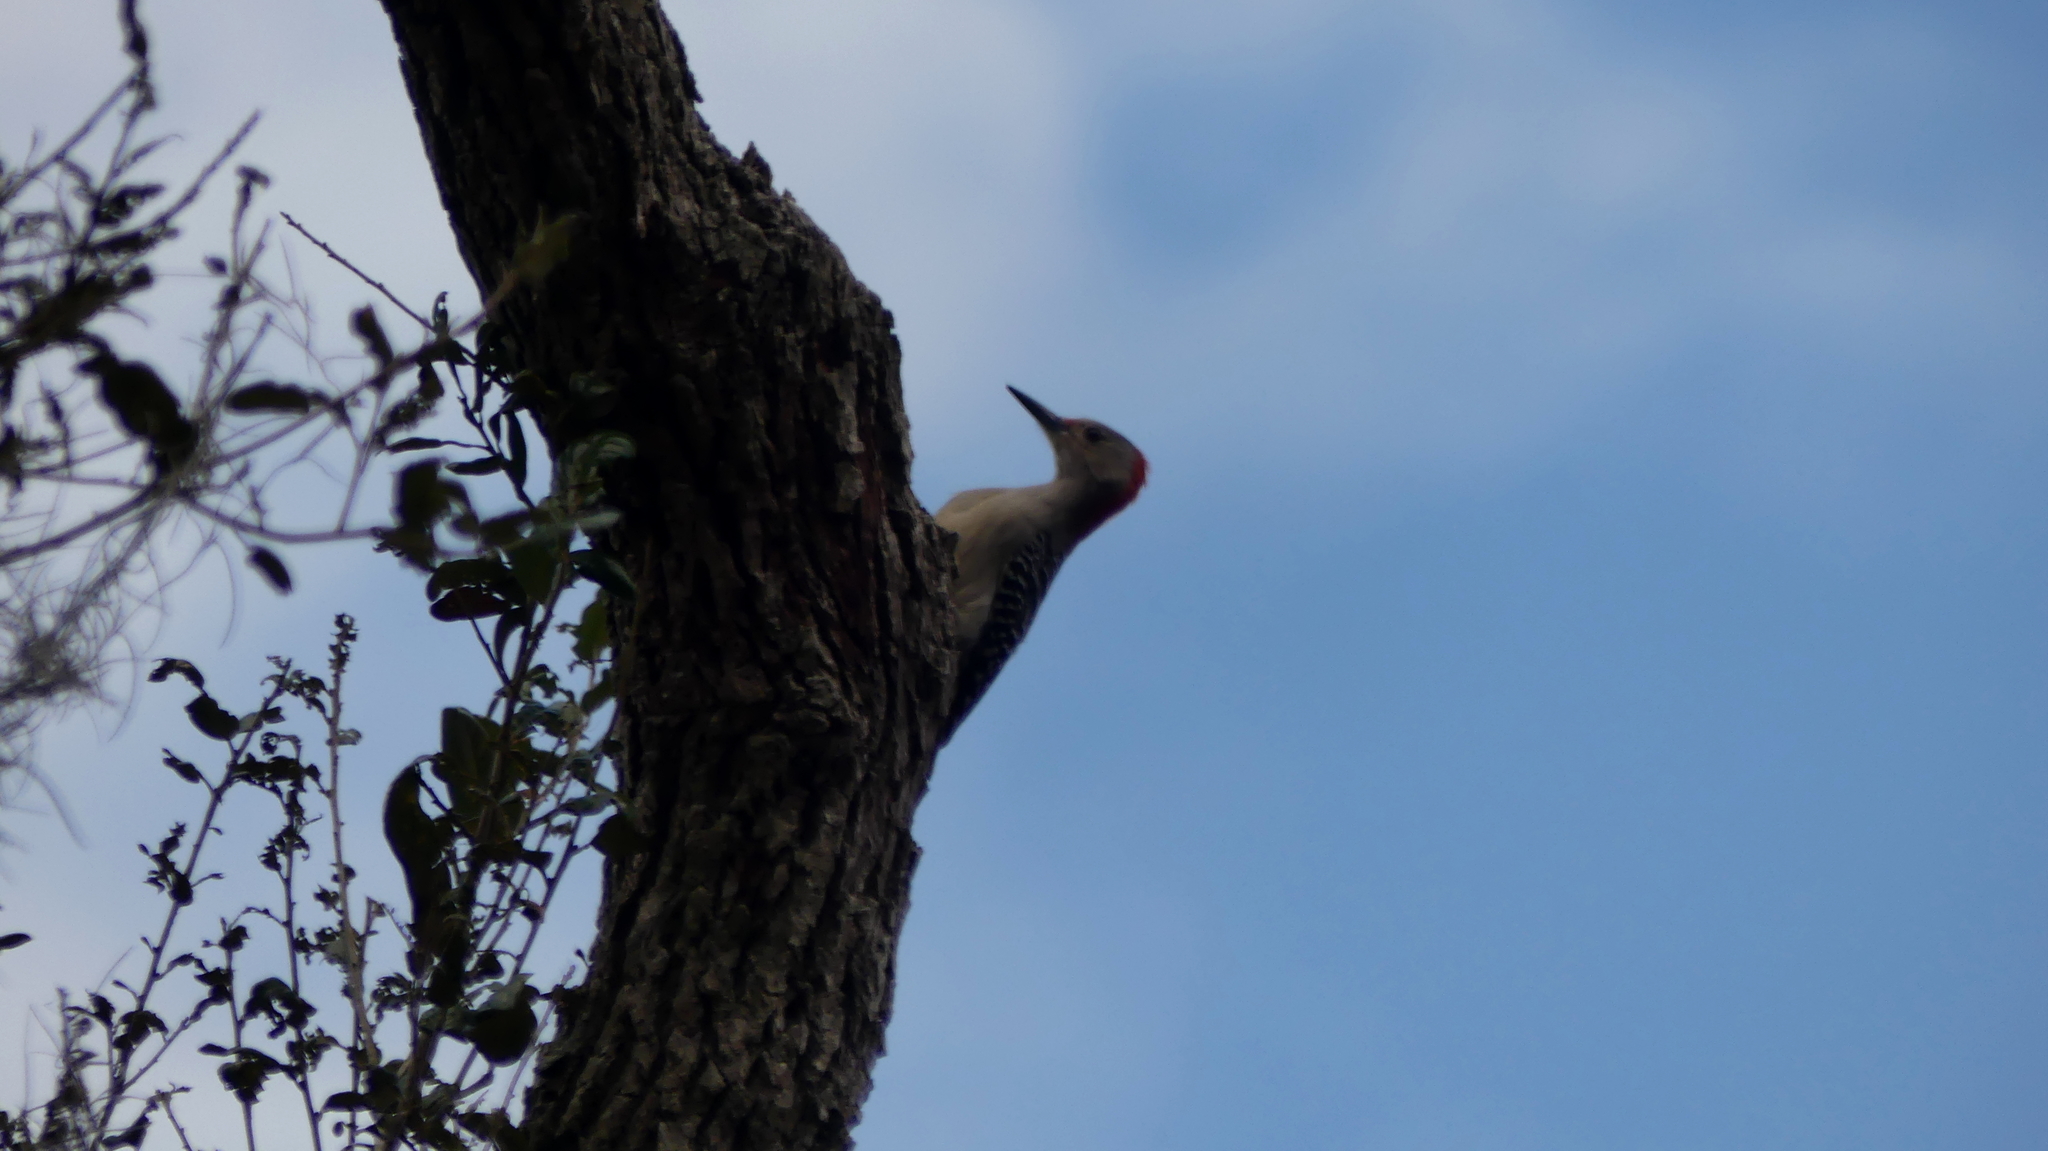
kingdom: Animalia
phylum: Chordata
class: Aves
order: Piciformes
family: Picidae
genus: Melanerpes
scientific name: Melanerpes carolinus
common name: Red-bellied woodpecker
